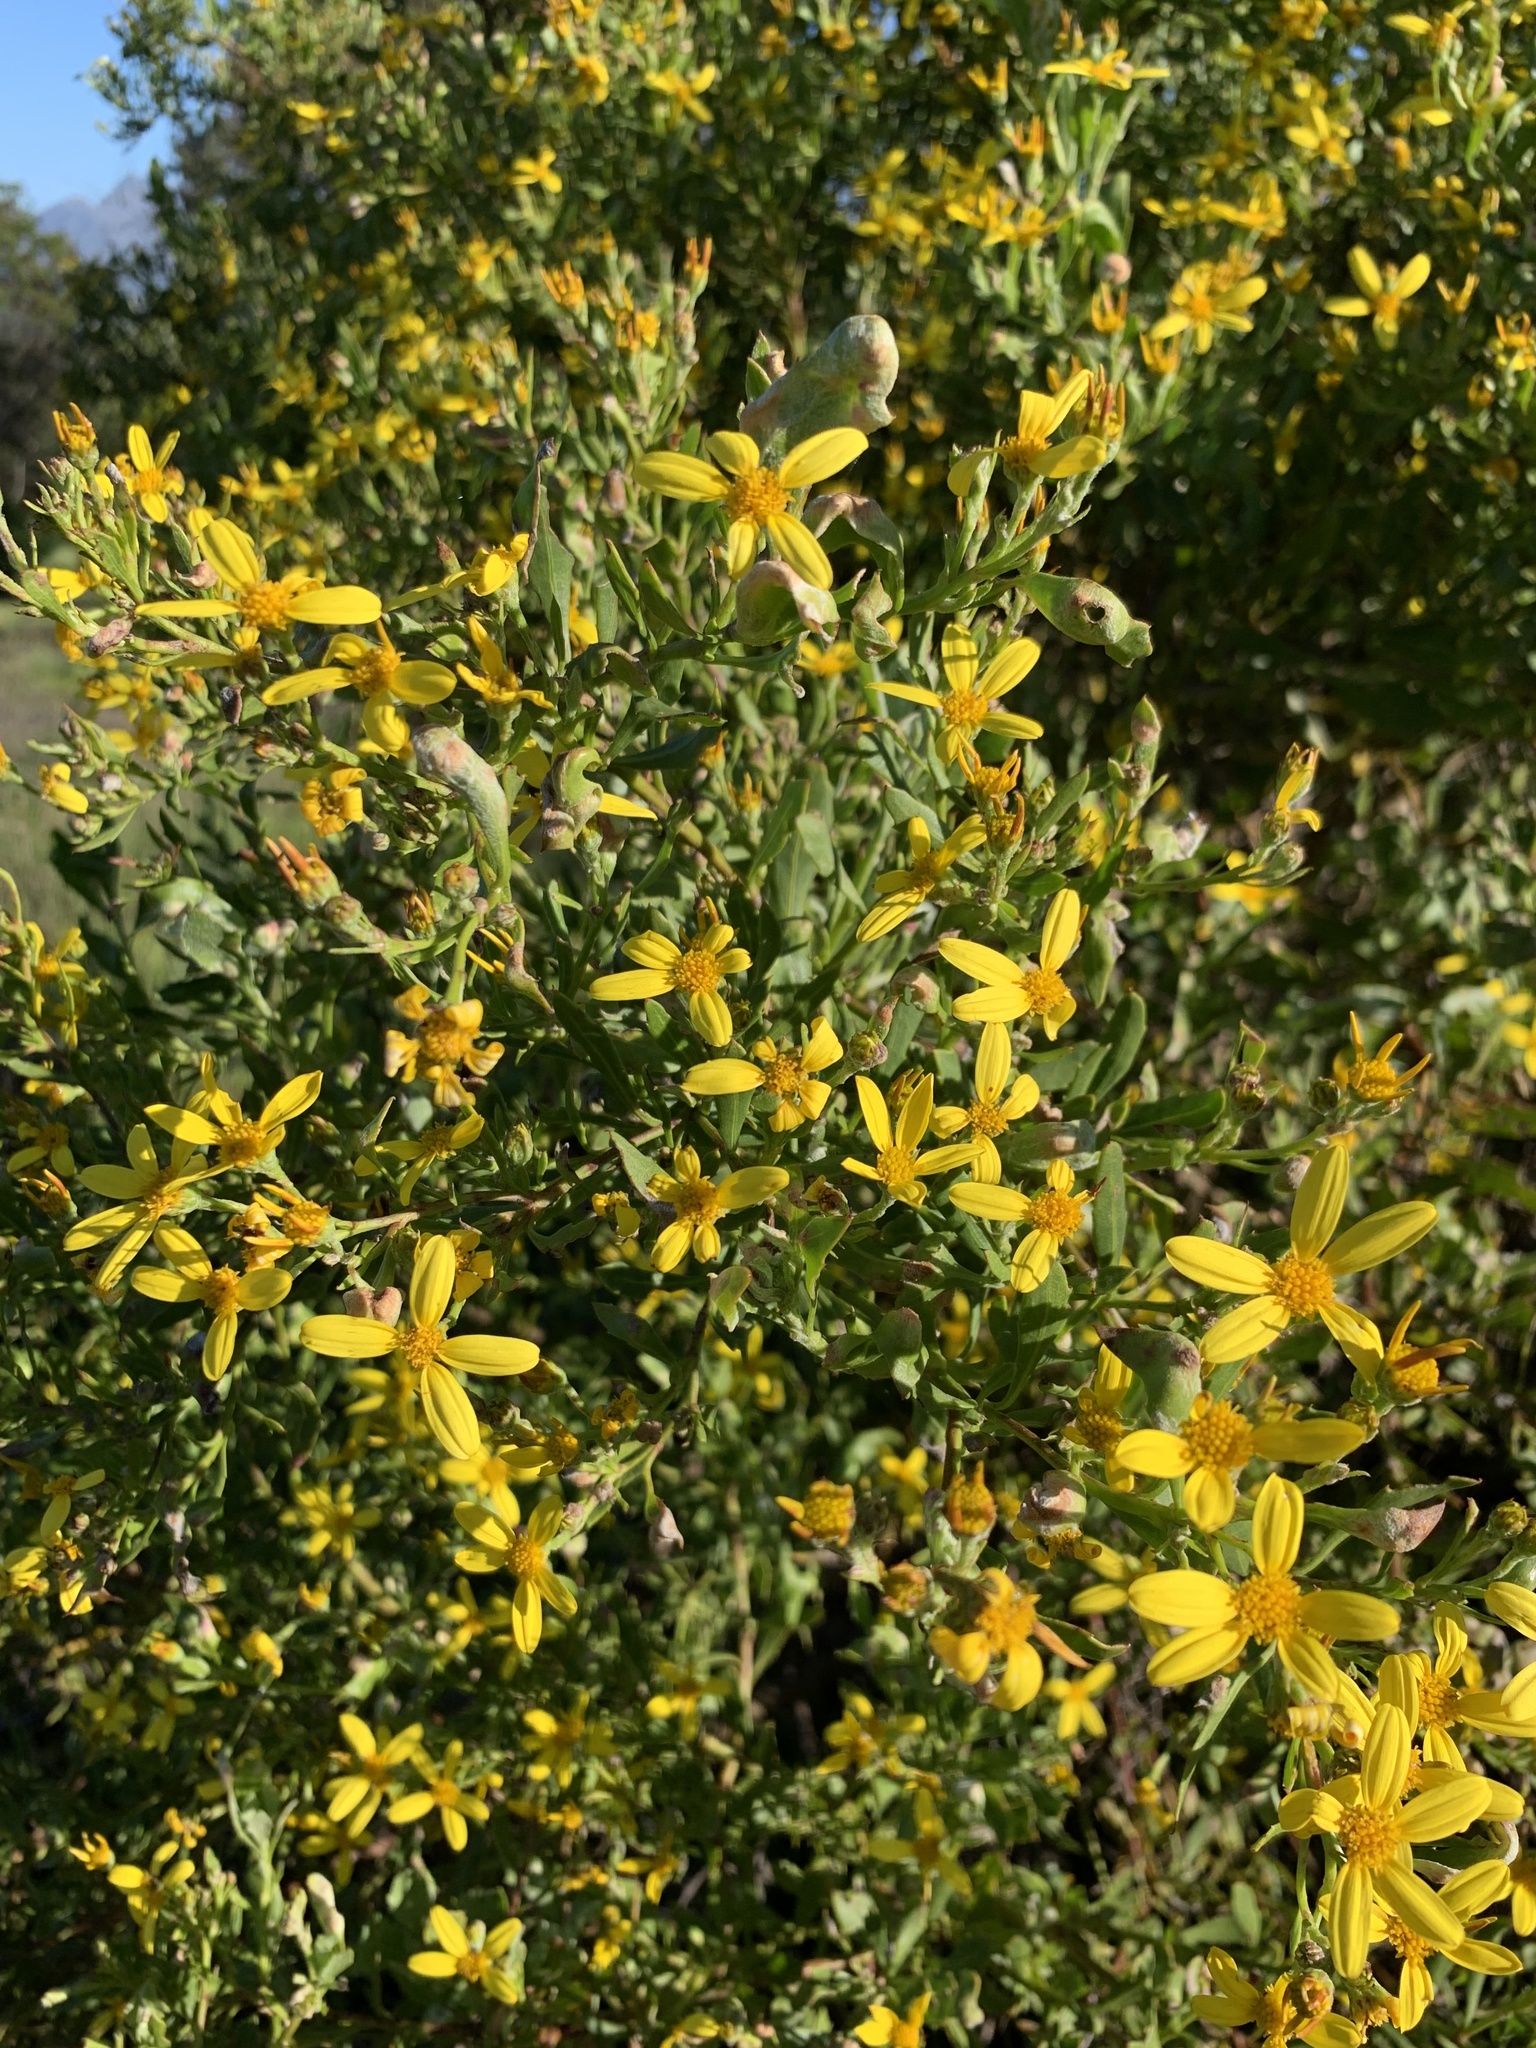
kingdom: Plantae
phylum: Tracheophyta
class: Magnoliopsida
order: Asterales
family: Asteraceae
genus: Osteospermum
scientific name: Osteospermum moniliferum
